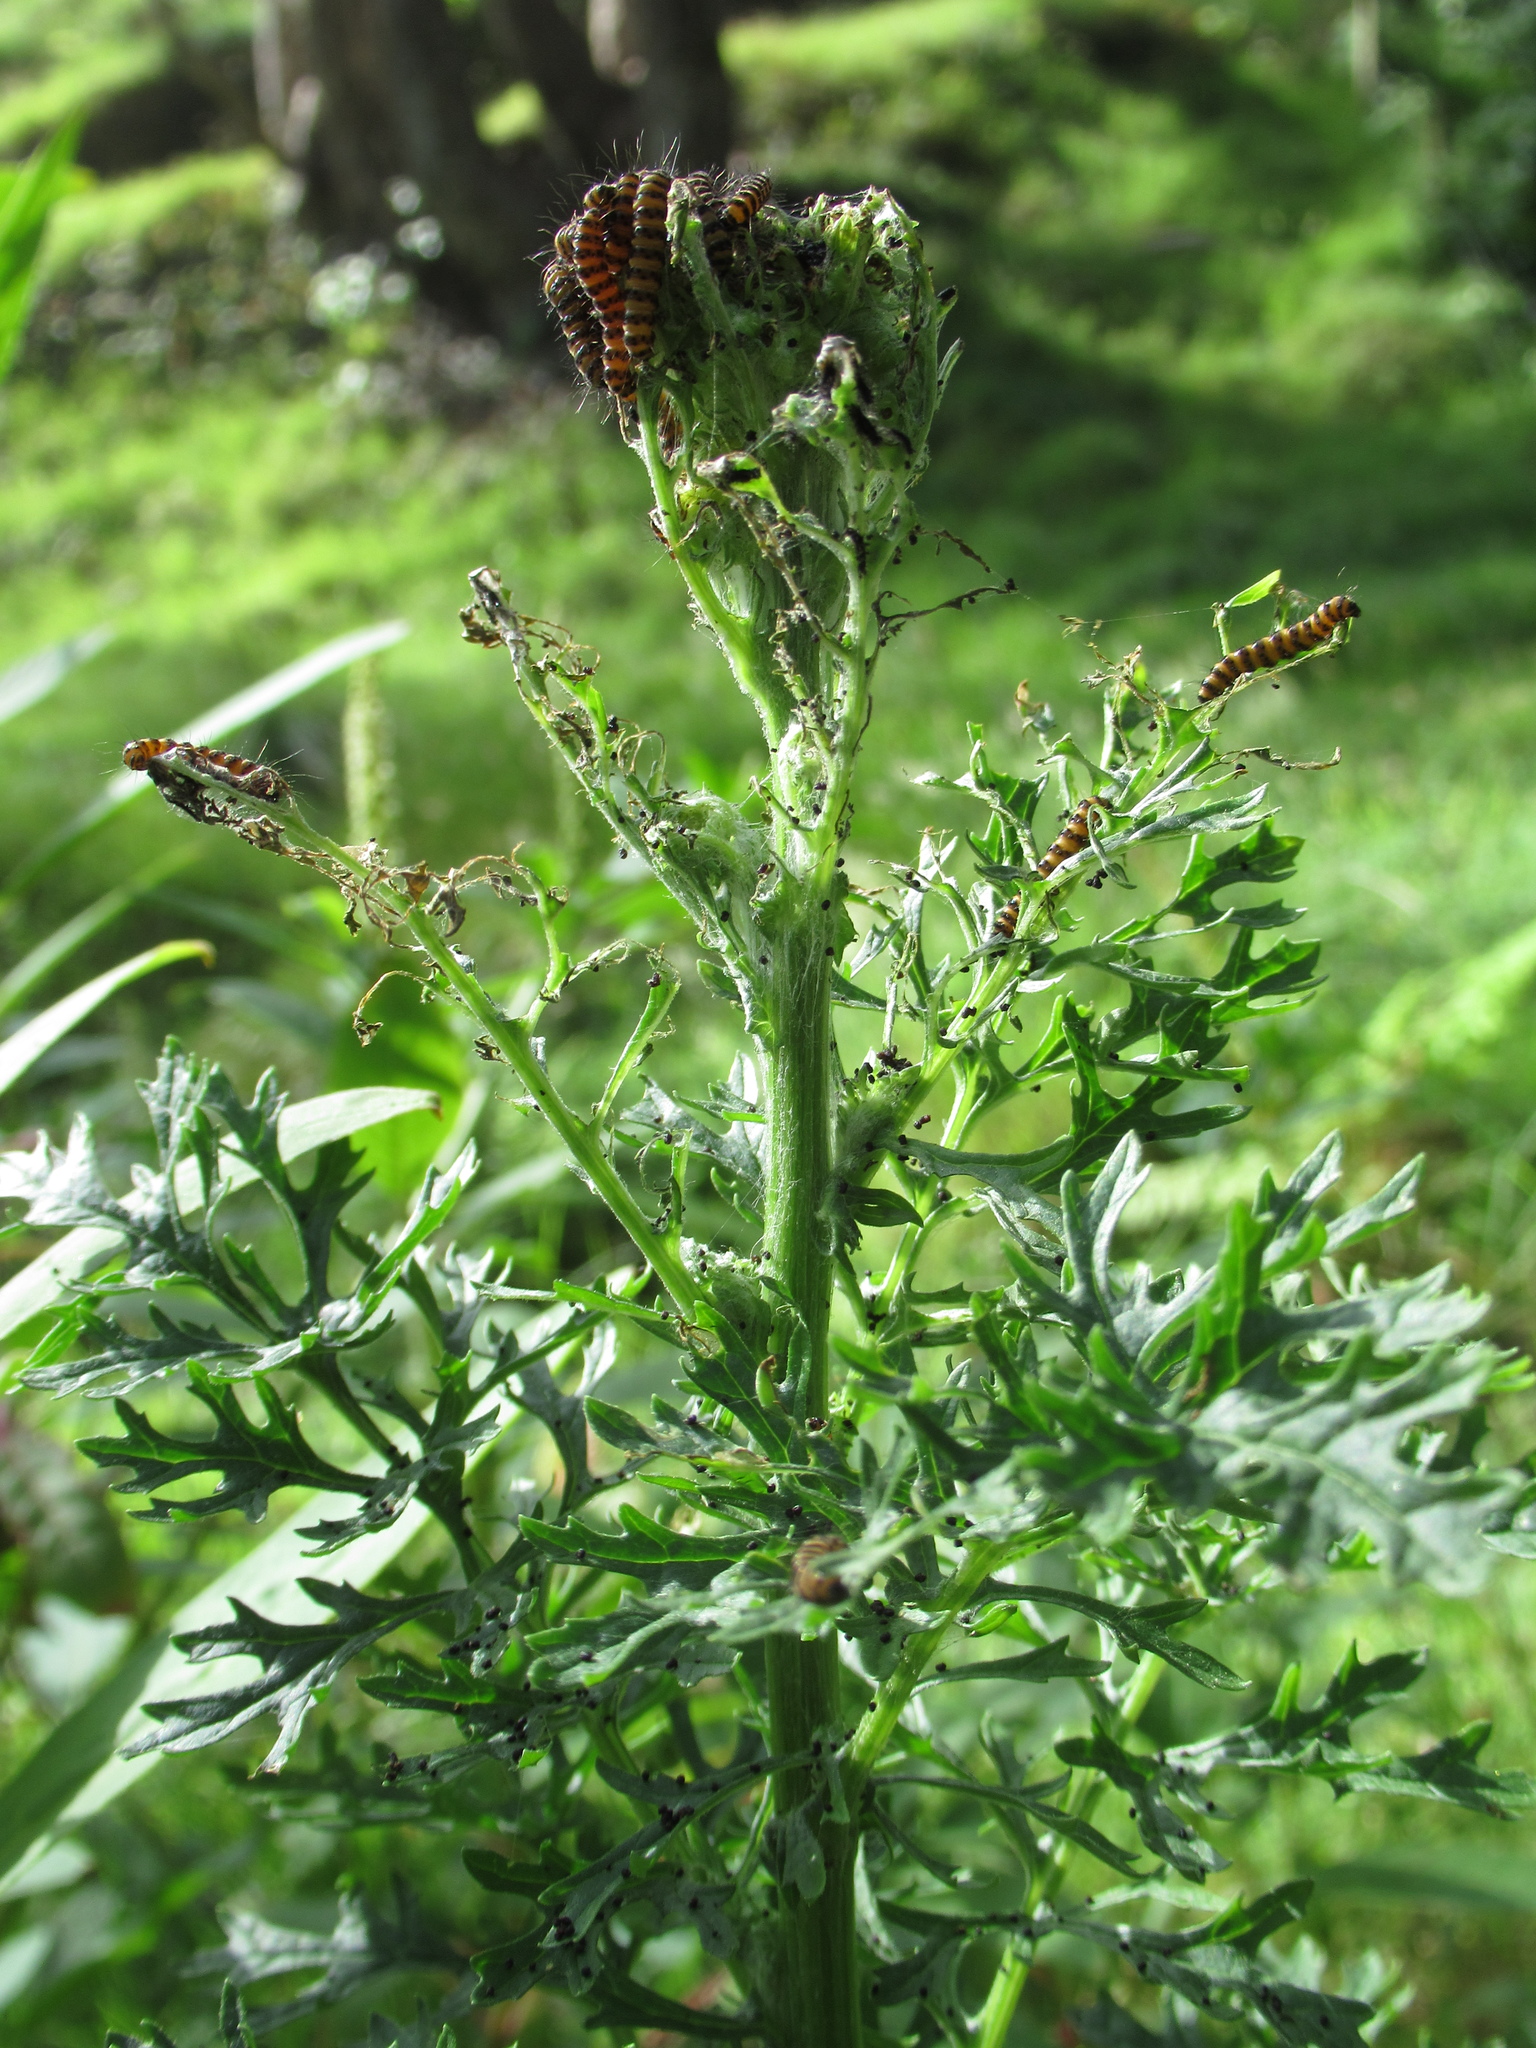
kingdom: Plantae
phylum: Tracheophyta
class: Magnoliopsida
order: Asterales
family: Asteraceae
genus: Jacobaea
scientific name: Jacobaea vulgaris
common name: Stinking willie
